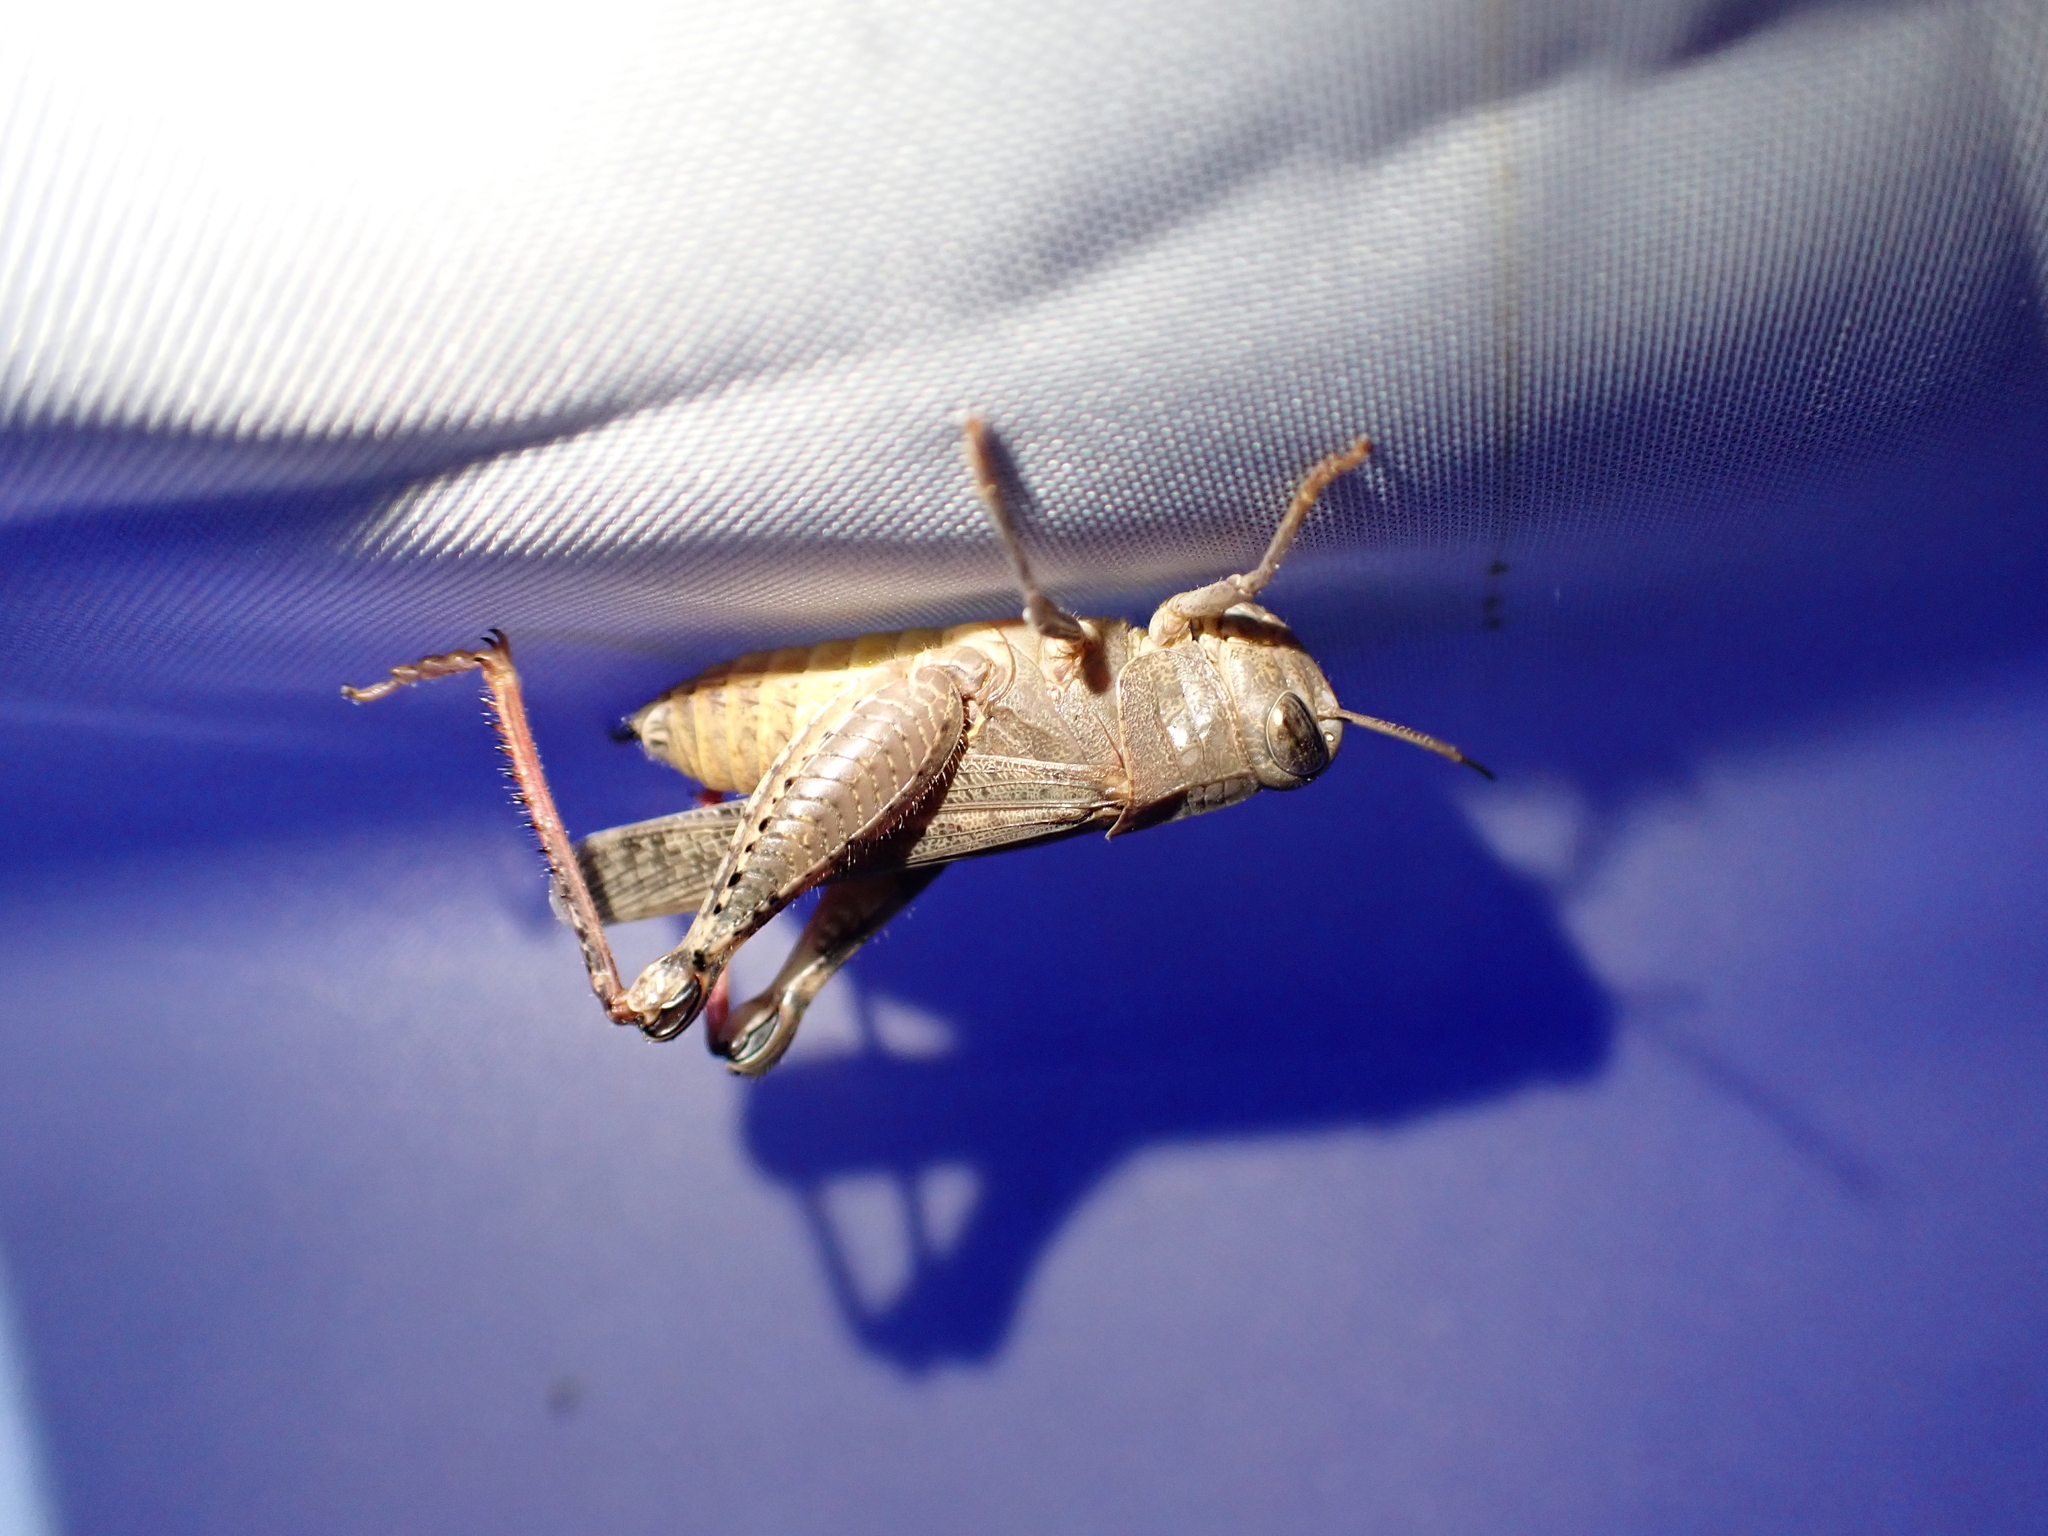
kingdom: Animalia
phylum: Arthropoda
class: Insecta
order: Orthoptera
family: Acrididae
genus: Calliptamus
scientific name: Calliptamus italicus
